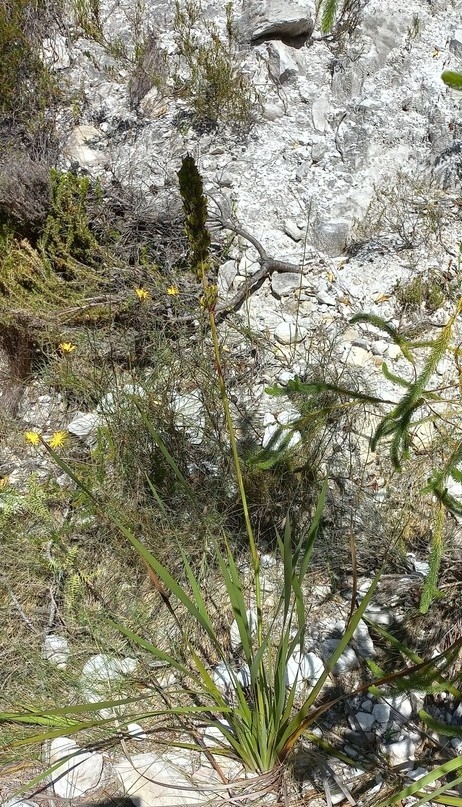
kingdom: Plantae
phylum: Tracheophyta
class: Liliopsida
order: Asparagales
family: Iridaceae
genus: Aristea
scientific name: Aristea capitata
